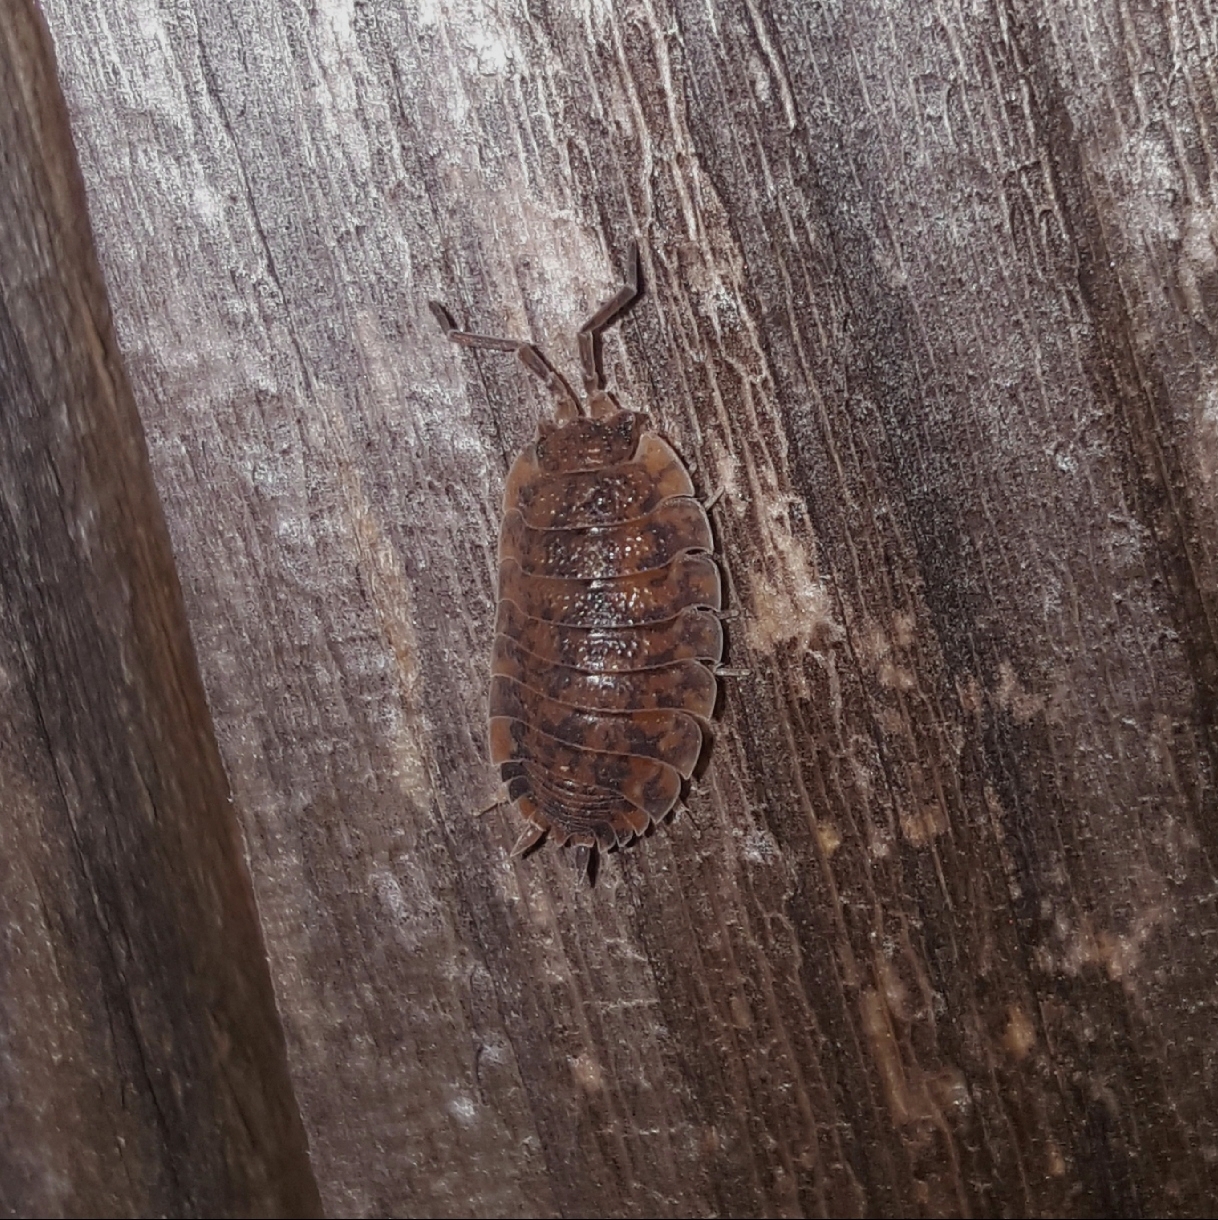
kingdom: Animalia
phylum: Arthropoda
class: Malacostraca
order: Isopoda
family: Porcellionidae
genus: Porcellio
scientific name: Porcellio scaber
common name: Common rough woodlouse
